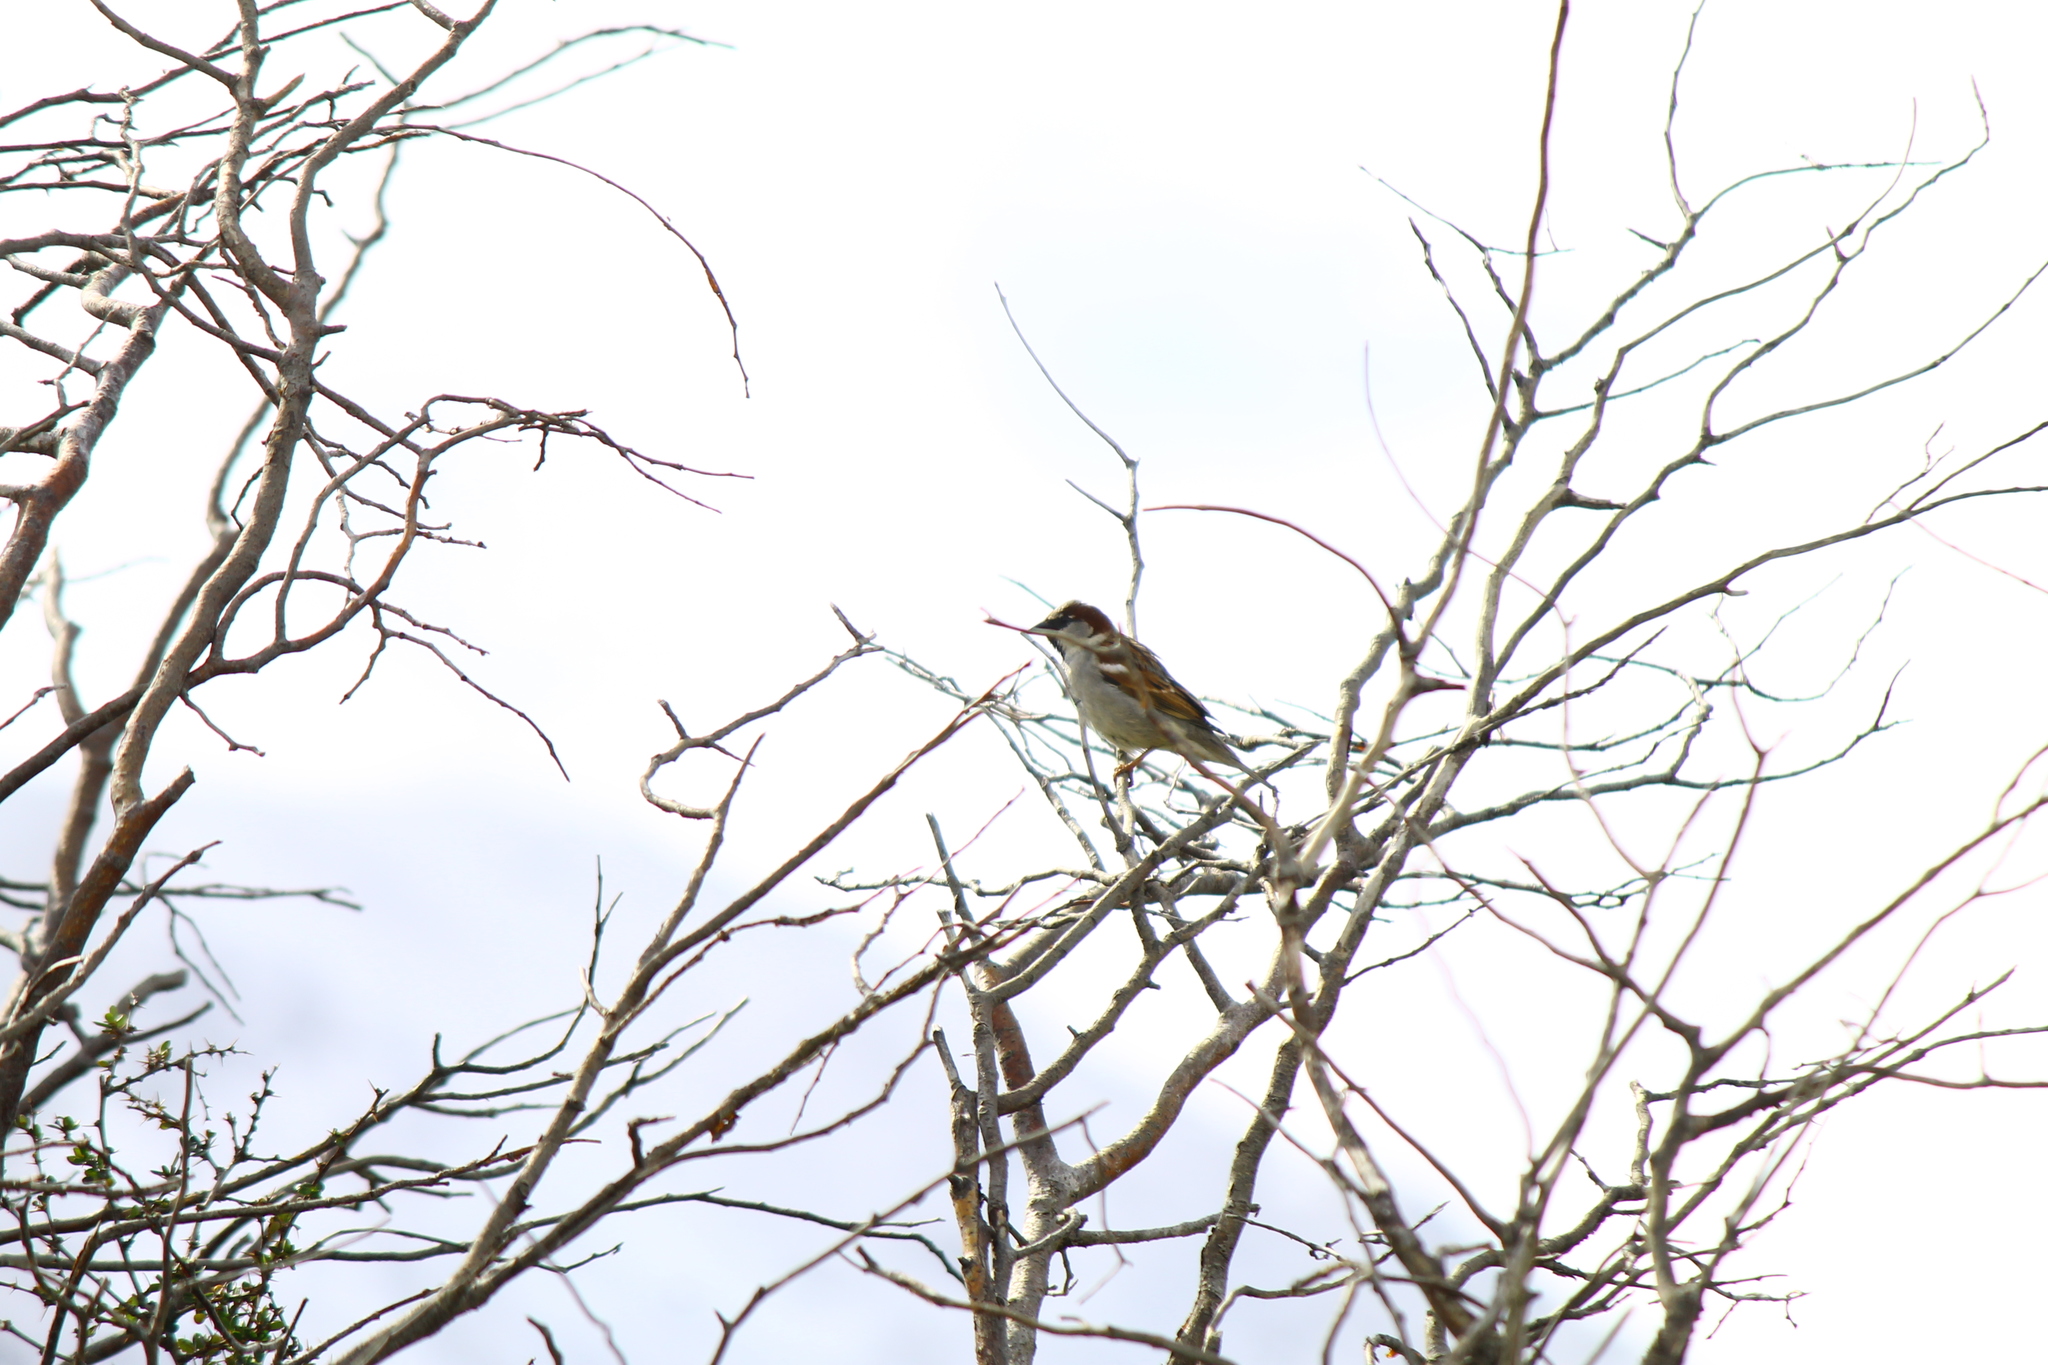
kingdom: Animalia
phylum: Chordata
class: Aves
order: Passeriformes
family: Passeridae
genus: Passer
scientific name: Passer domesticus
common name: House sparrow
